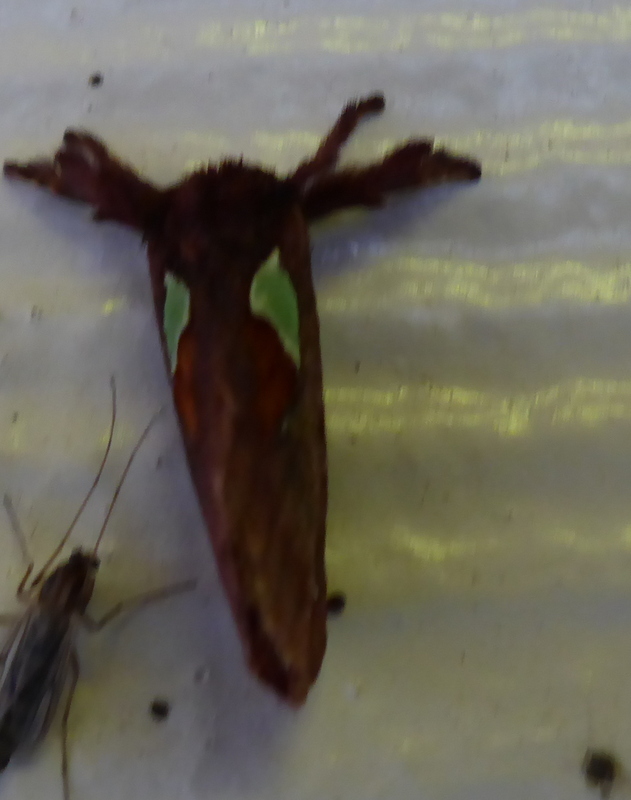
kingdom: Animalia
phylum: Arthropoda
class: Insecta
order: Lepidoptera
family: Limacodidae
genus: Euclea
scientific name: Euclea delphinii
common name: Spiny oak-slug moth
